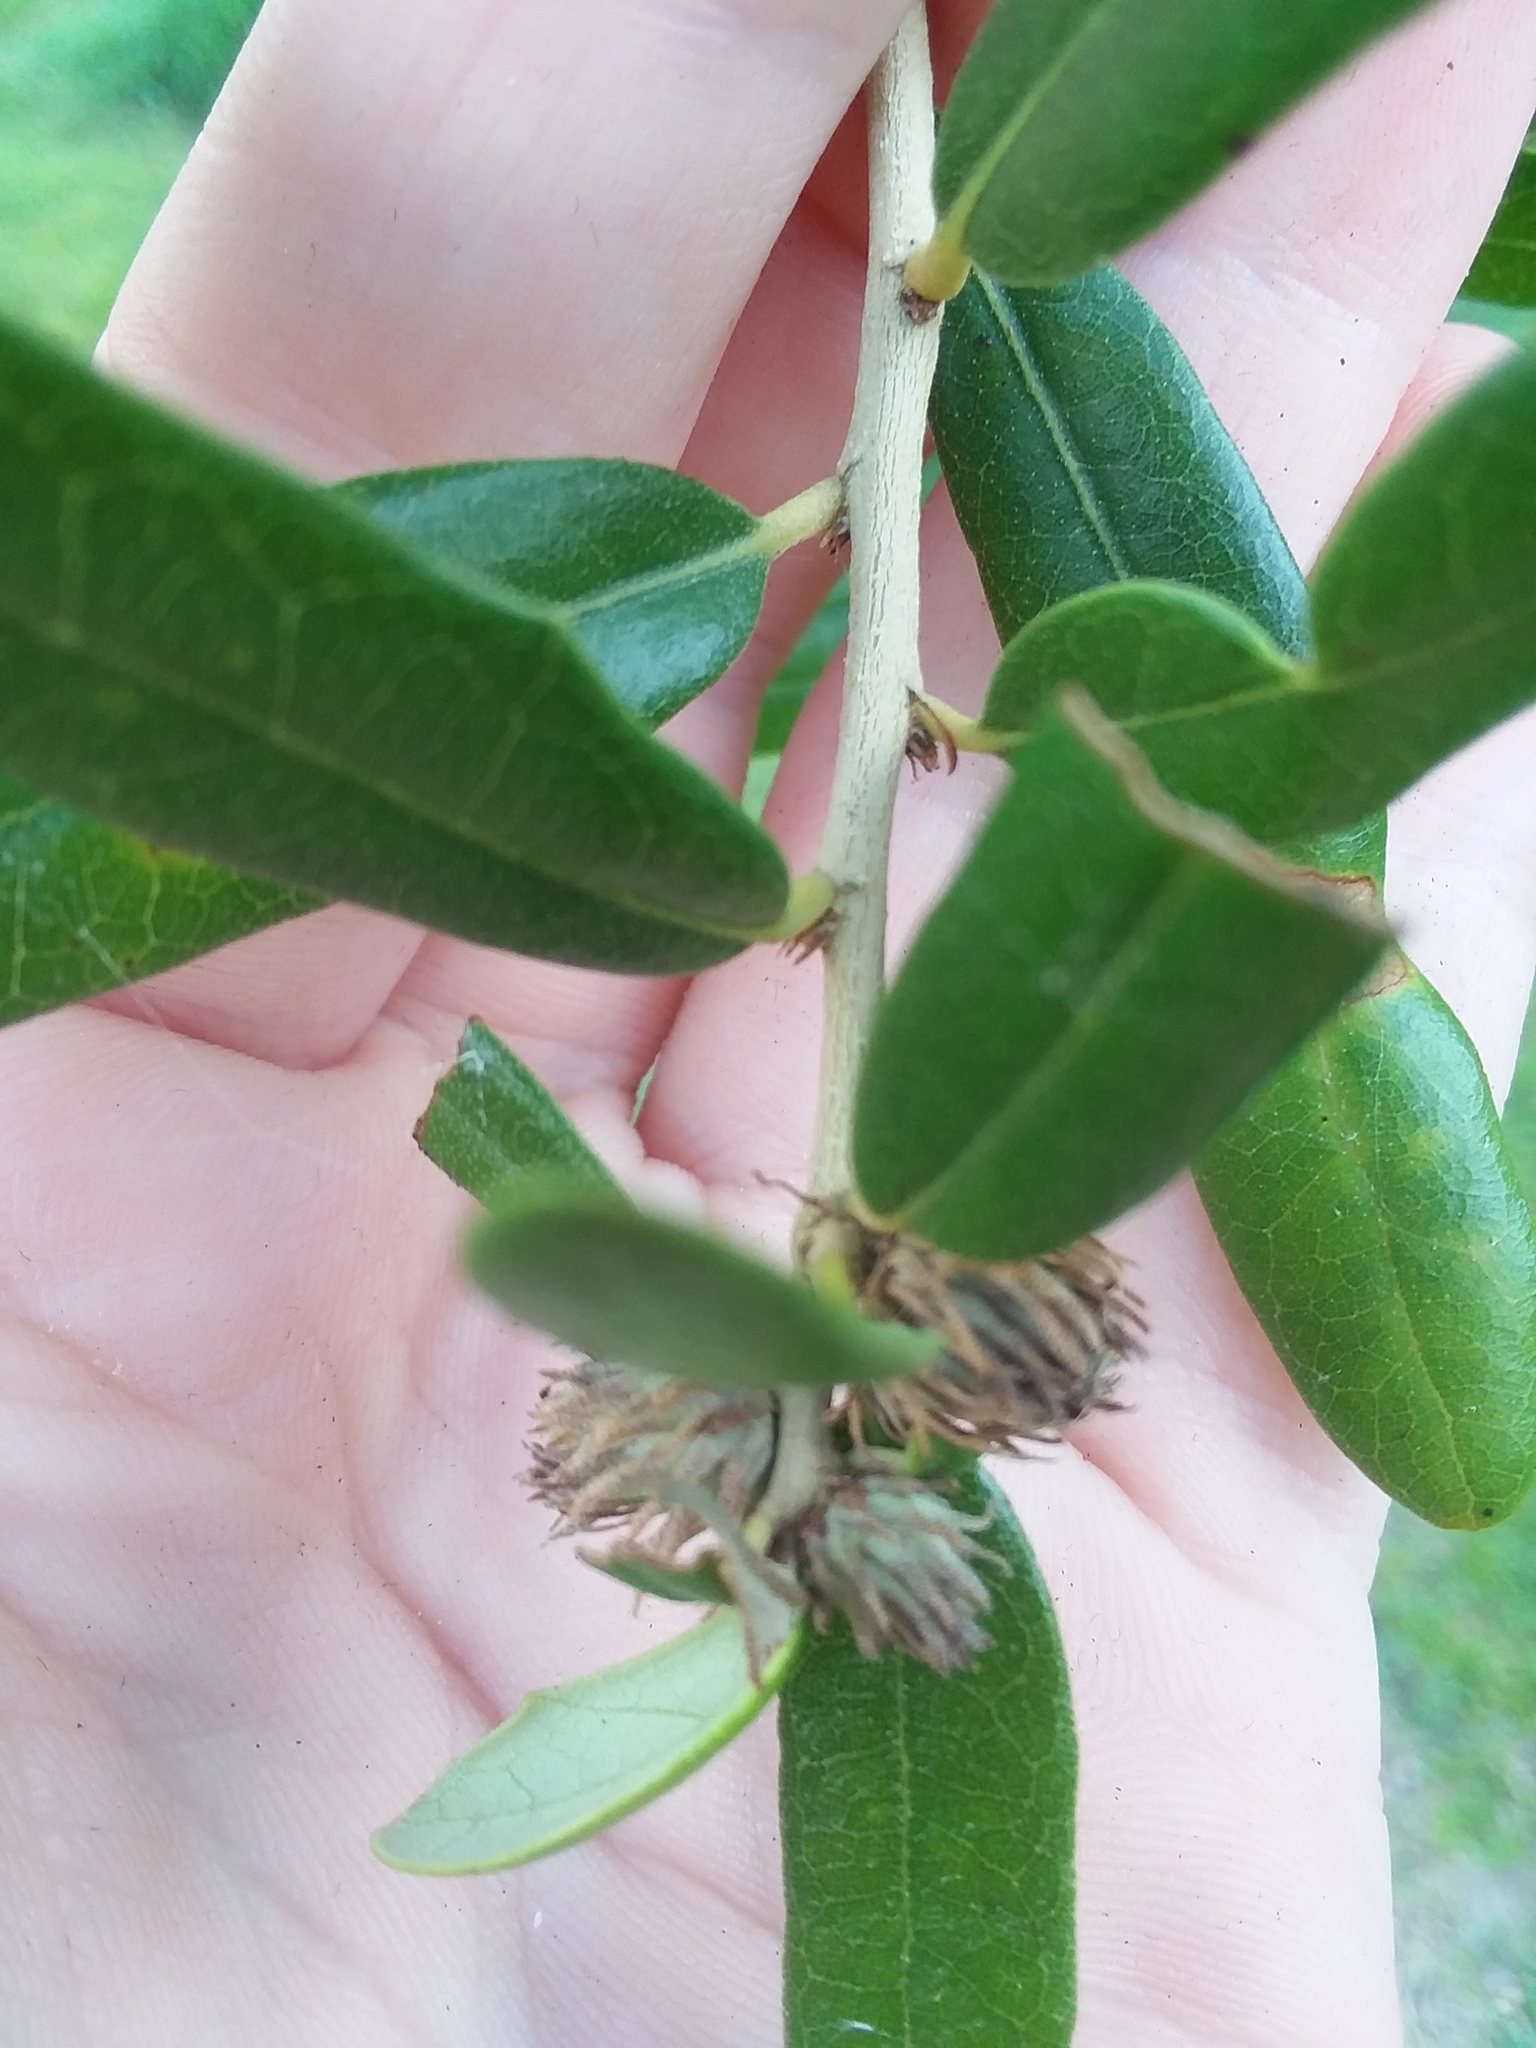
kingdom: Animalia
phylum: Arthropoda
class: Insecta
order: Hymenoptera
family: Cynipidae
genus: Andricus
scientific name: Andricus quercusfoliatus
